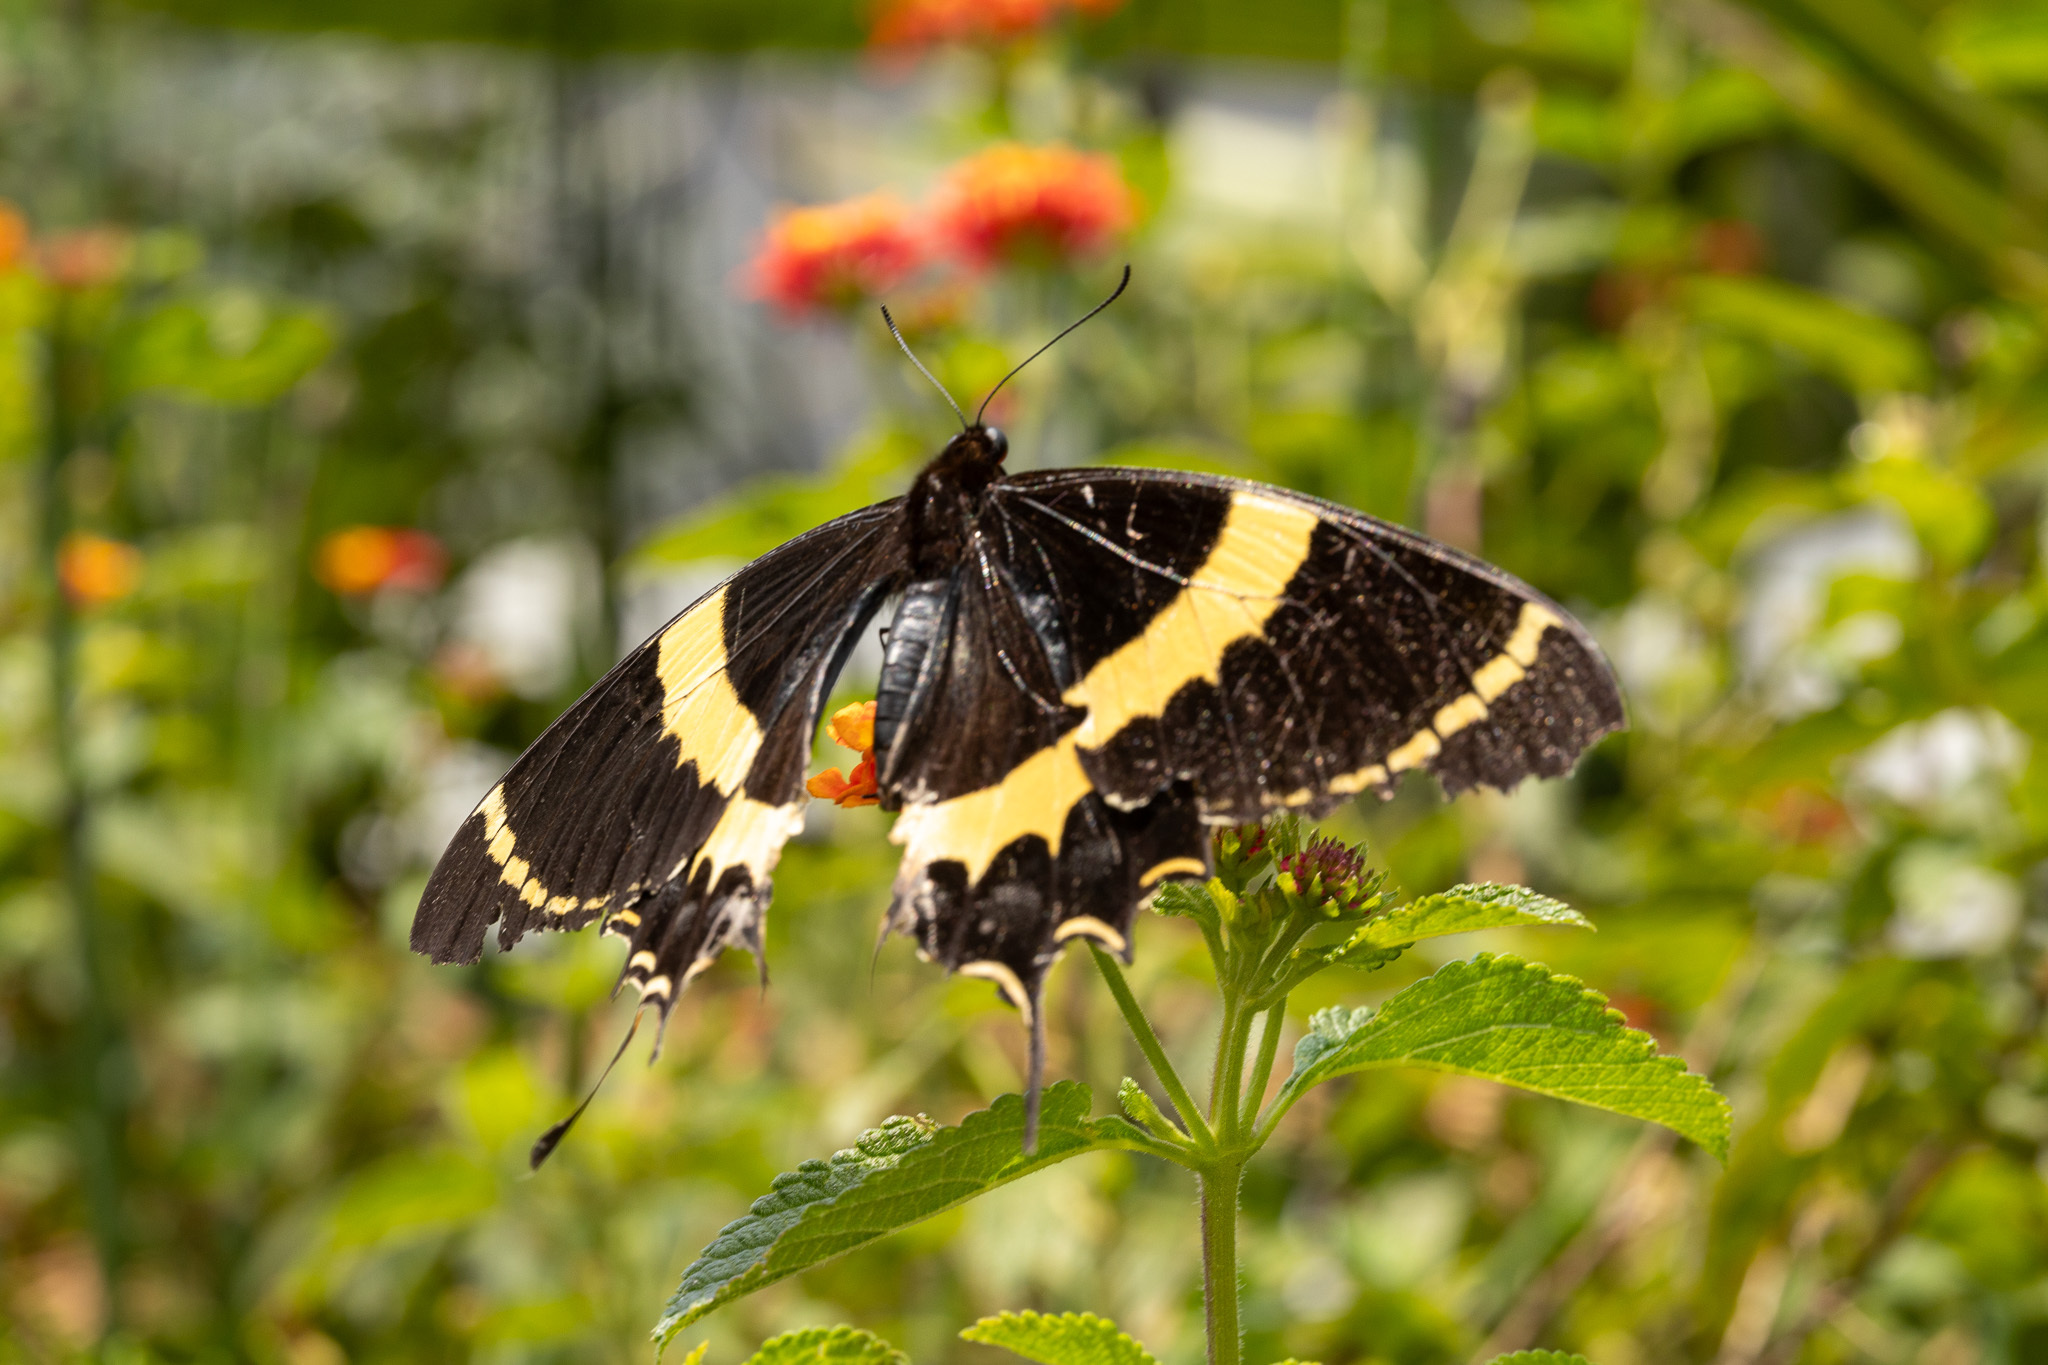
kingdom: Animalia
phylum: Arthropoda
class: Insecta
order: Lepidoptera
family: Papilionidae
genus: Papilio
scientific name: Papilio garamas
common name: Magnificent swallowtail
